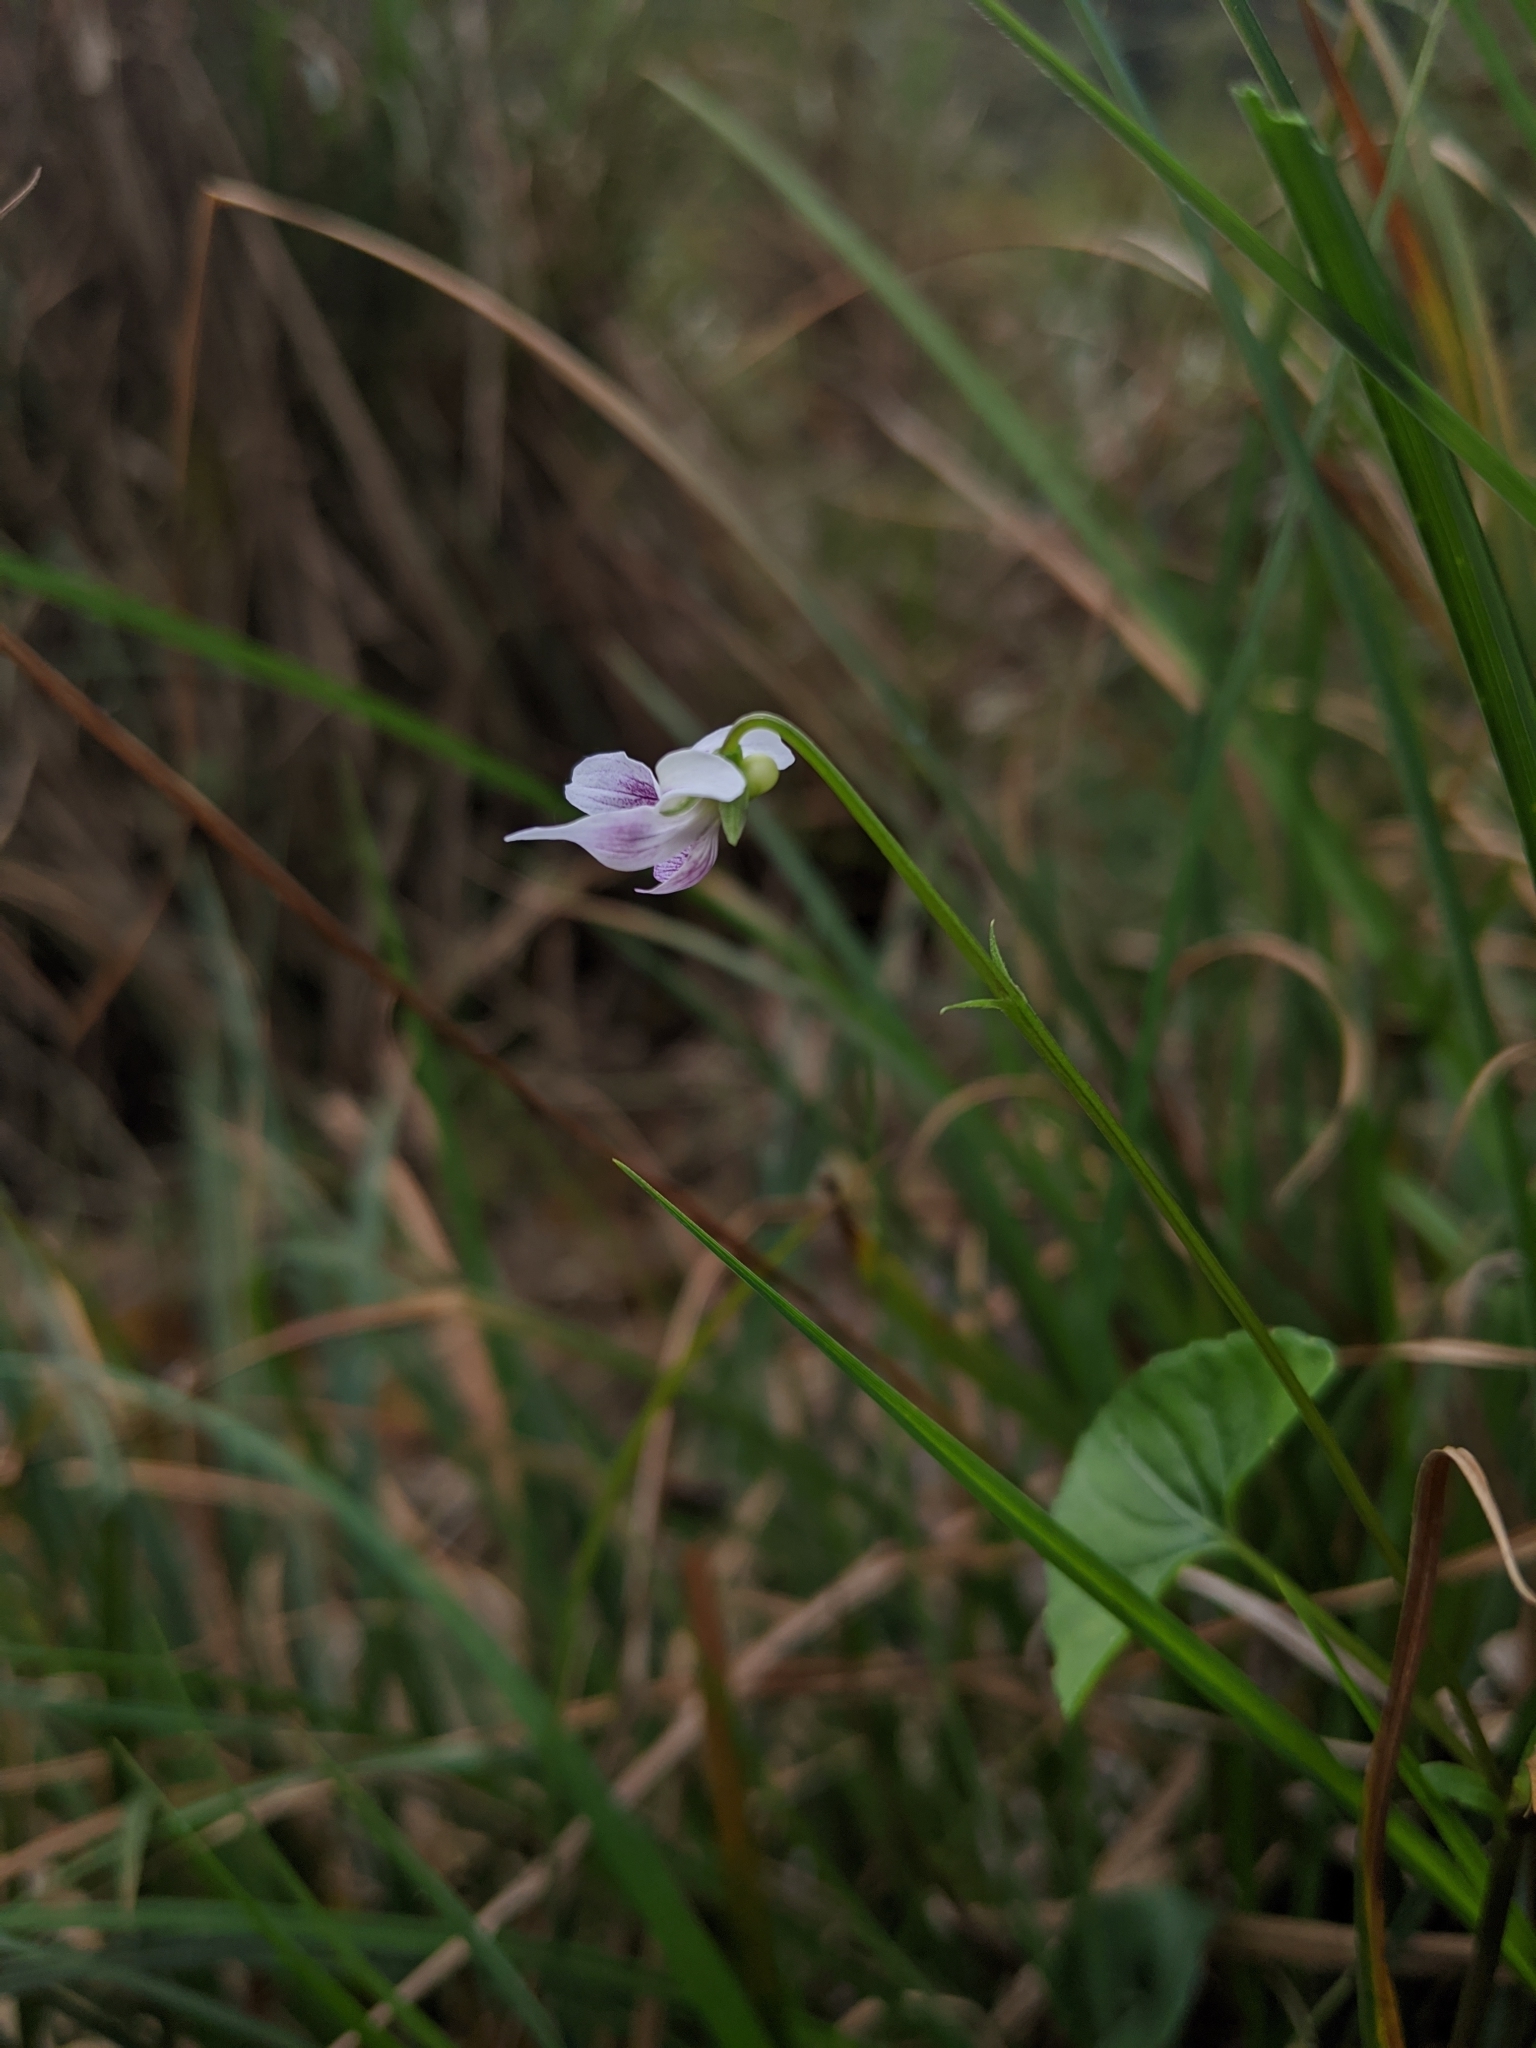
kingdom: Plantae
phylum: Tracheophyta
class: Magnoliopsida
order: Malpighiales
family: Violaceae
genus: Viola
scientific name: Viola
